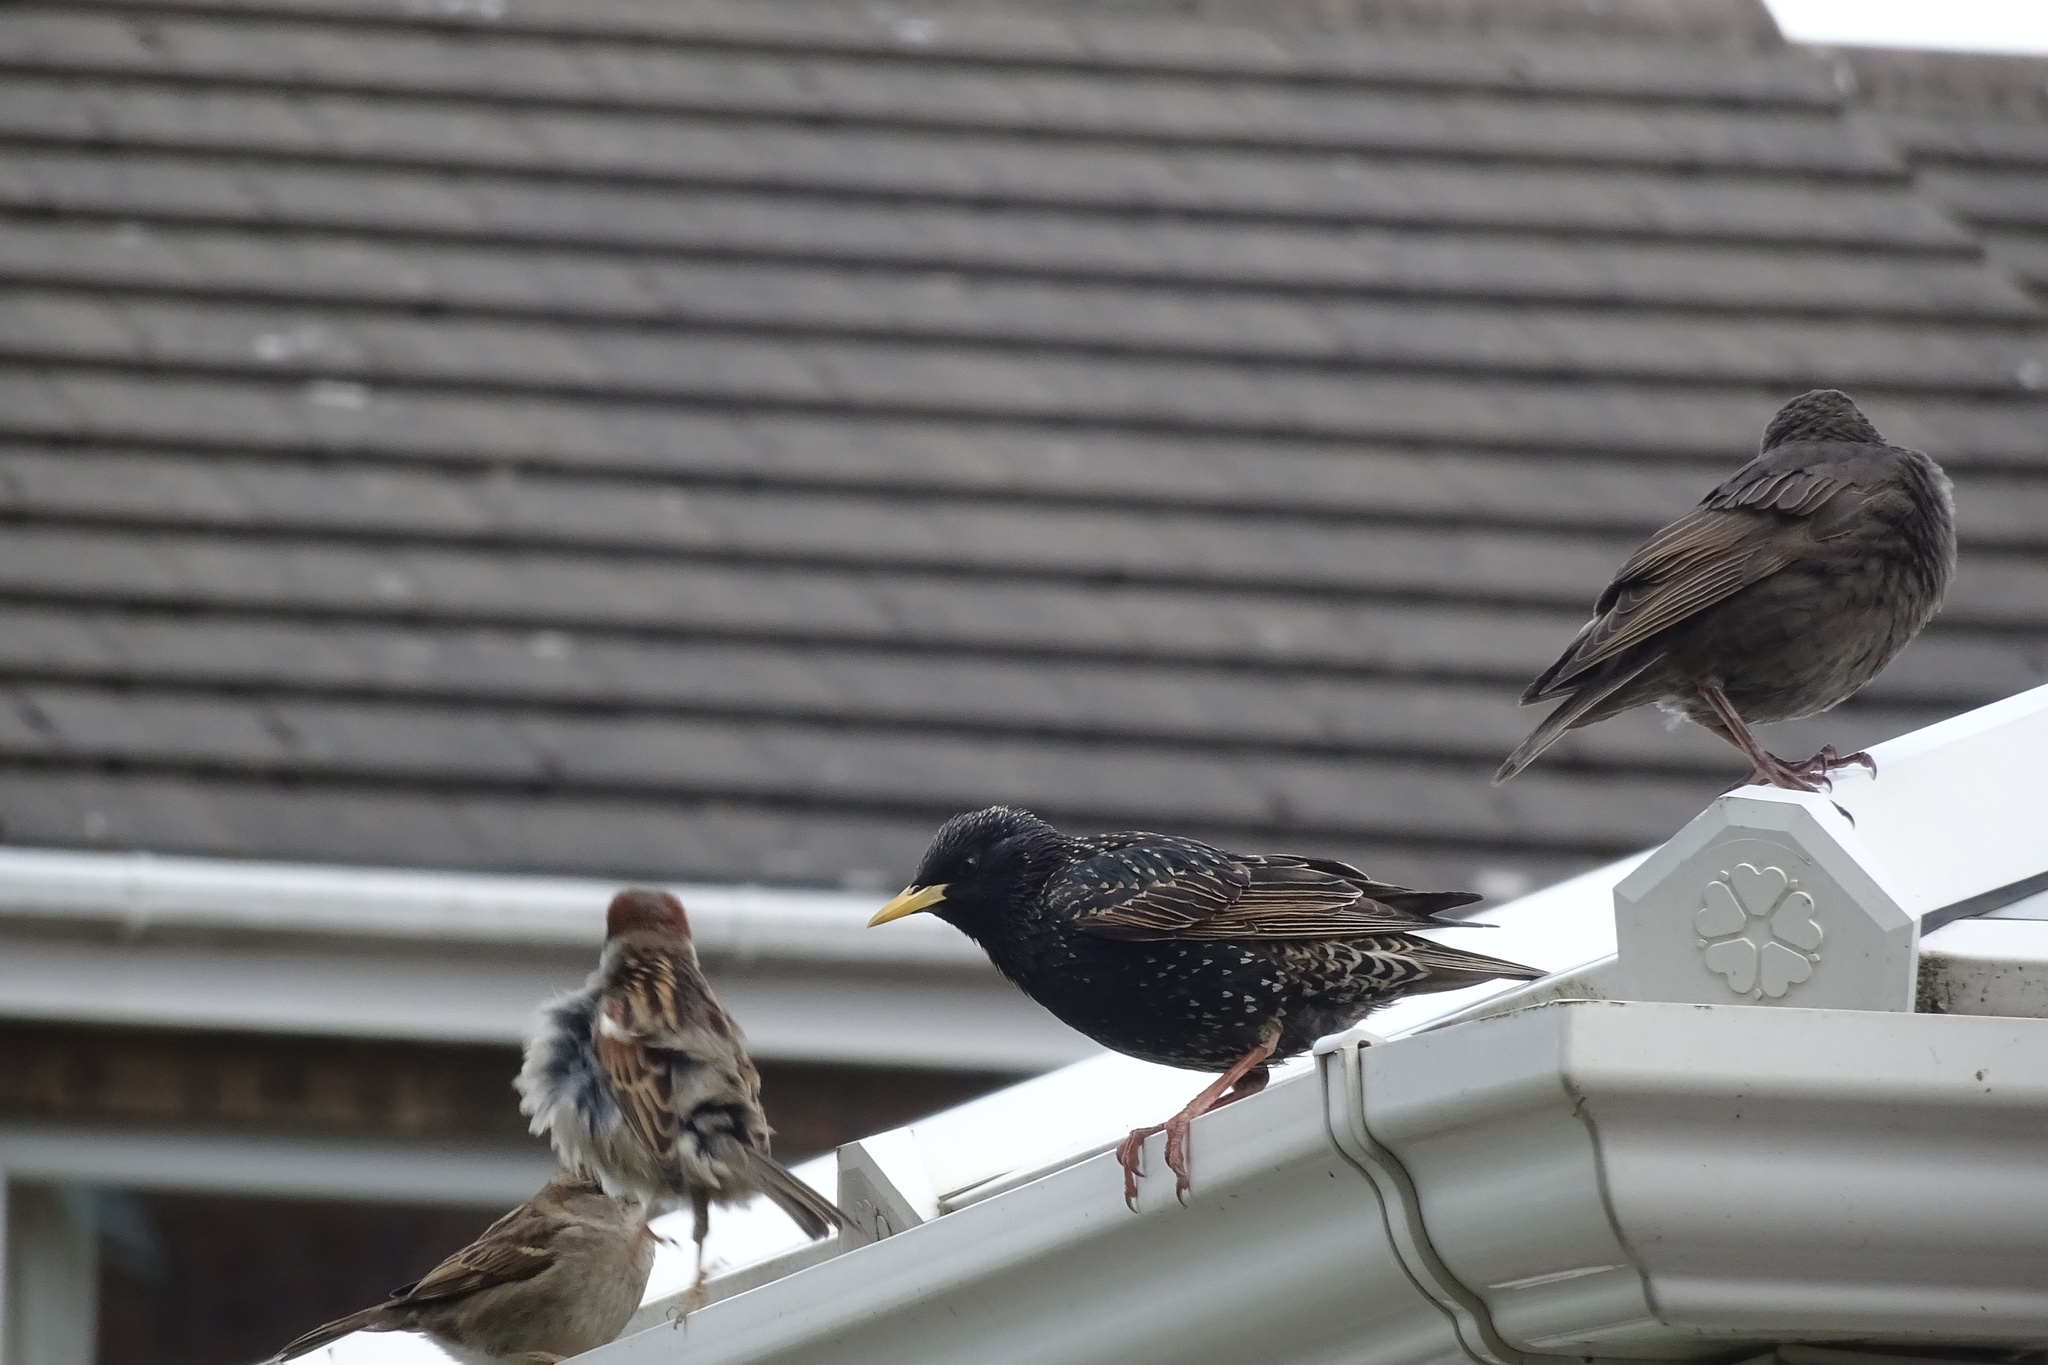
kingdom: Animalia
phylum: Chordata
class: Aves
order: Passeriformes
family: Sturnidae
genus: Sturnus
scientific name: Sturnus vulgaris
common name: Common starling
